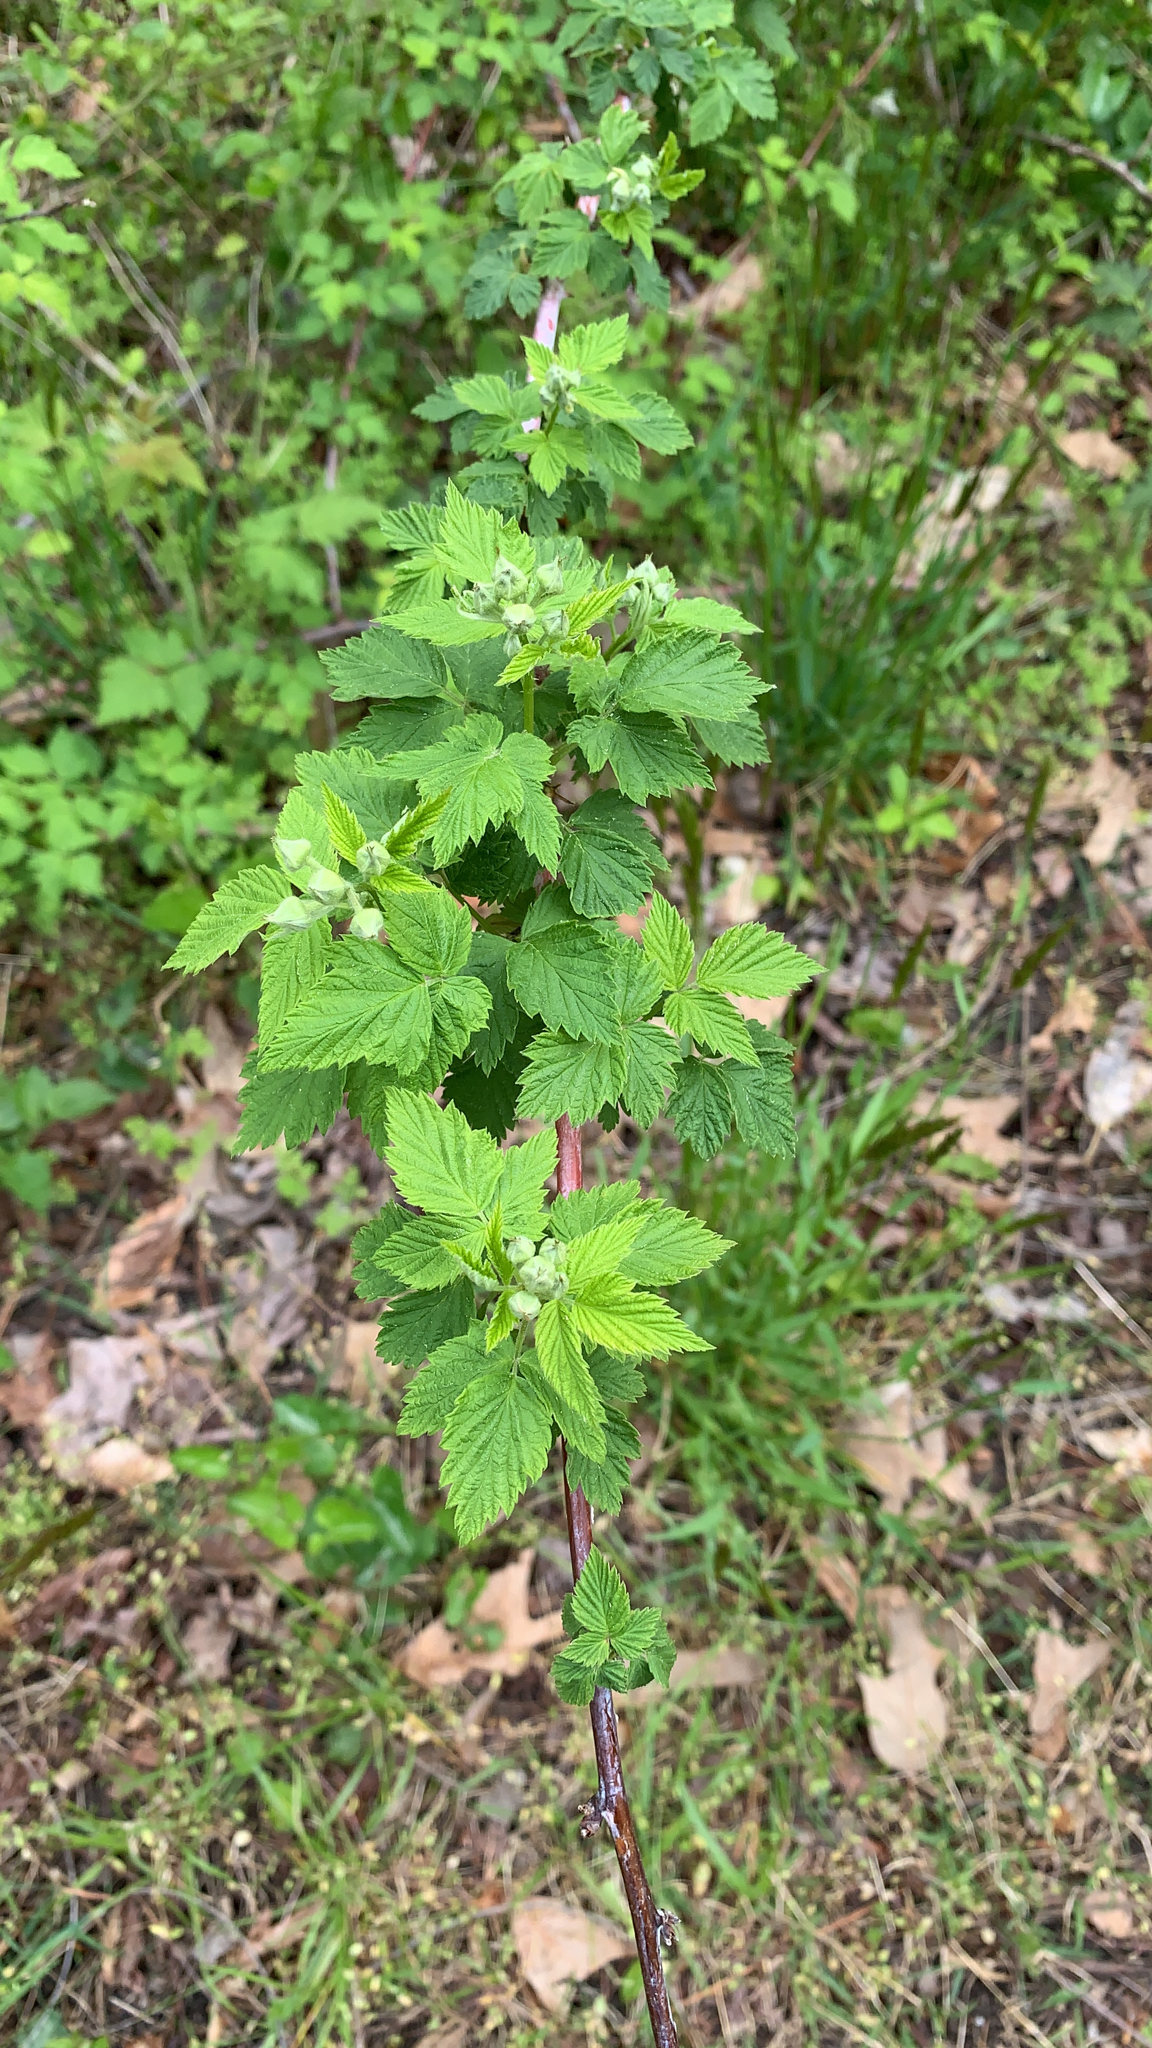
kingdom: Plantae
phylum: Tracheophyta
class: Magnoliopsida
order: Rosales
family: Rosaceae
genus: Rubus
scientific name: Rubus occidentalis
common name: Black raspberry
